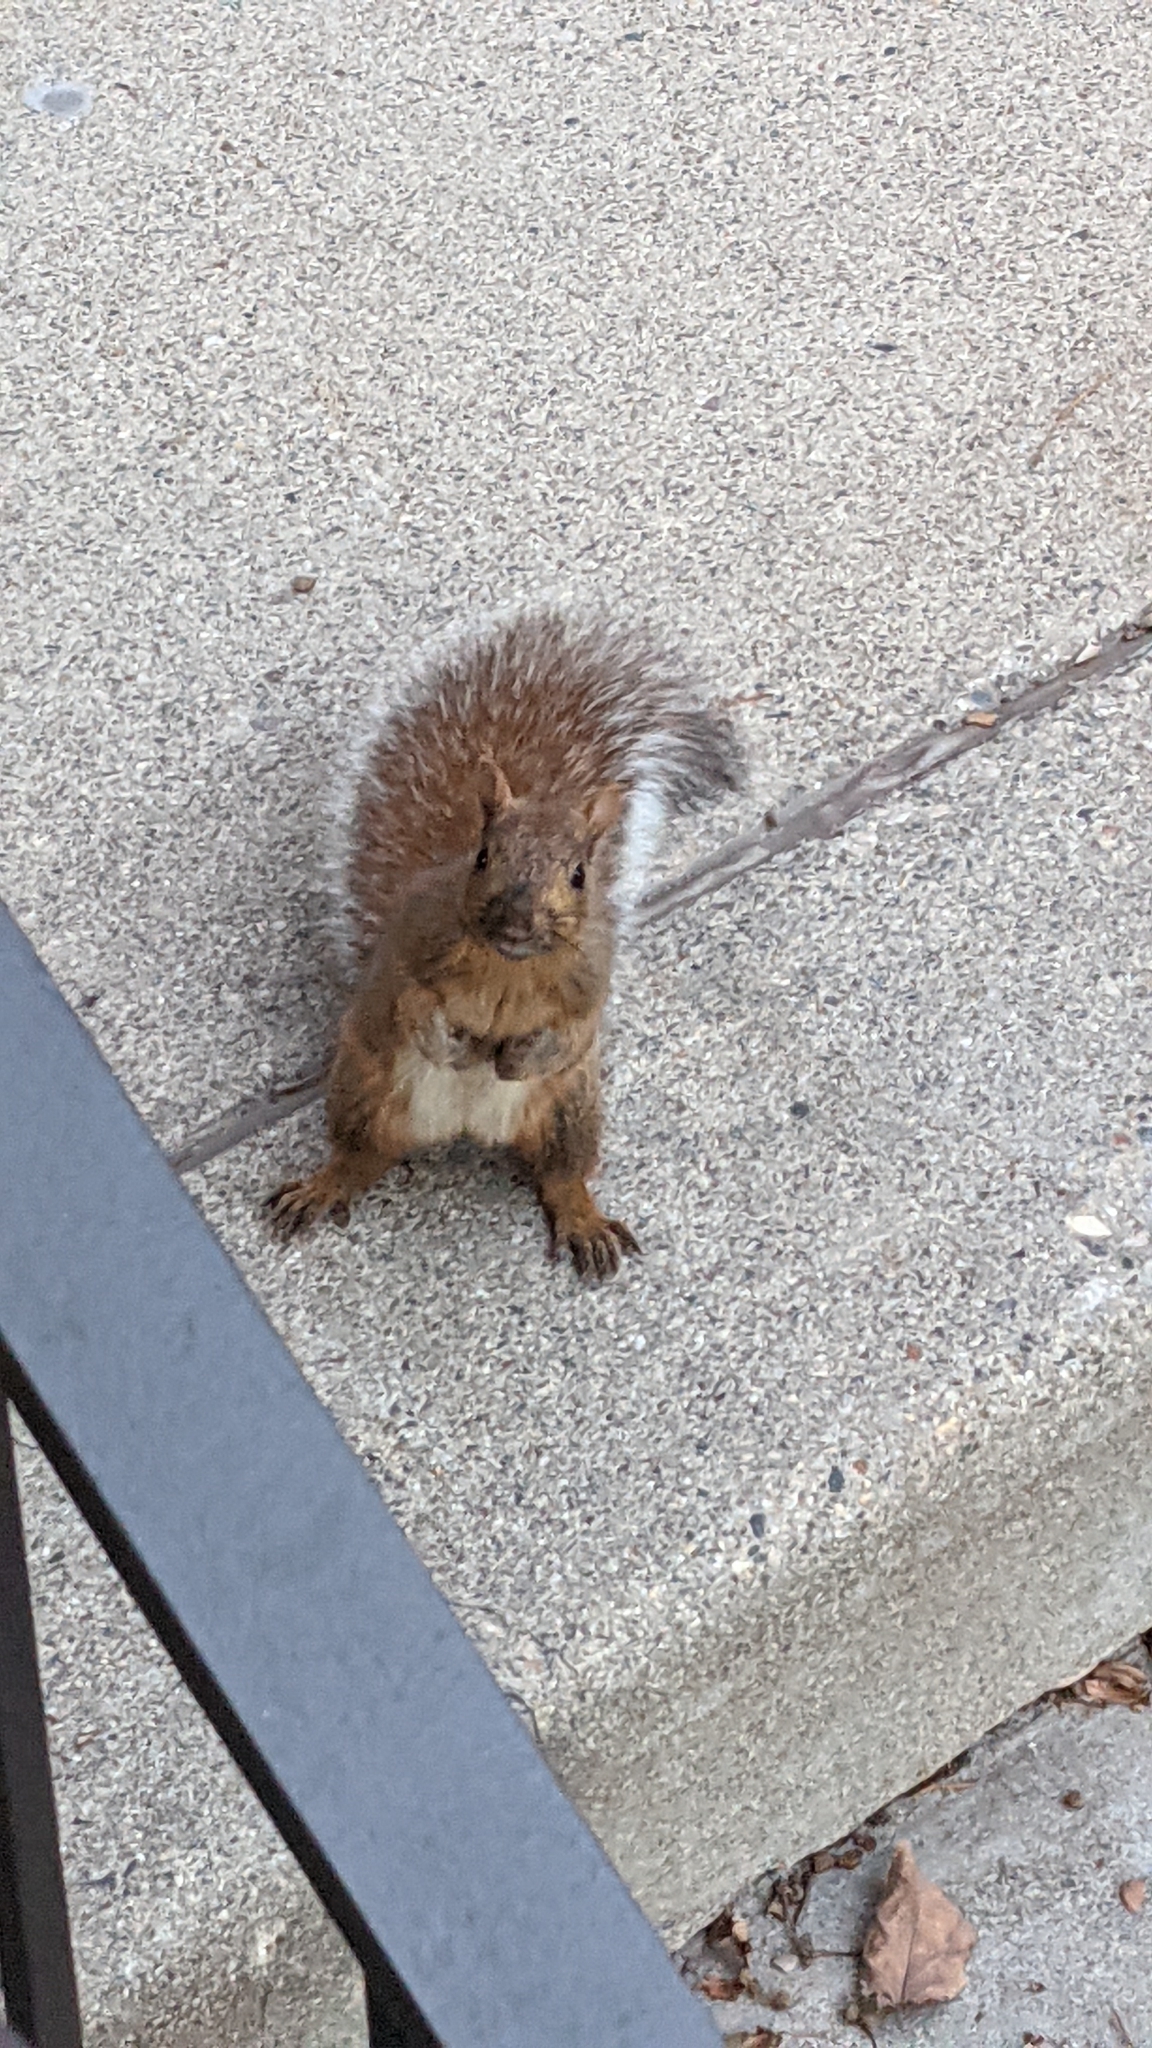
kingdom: Animalia
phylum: Chordata
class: Mammalia
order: Rodentia
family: Sciuridae
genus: Sciurus
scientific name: Sciurus carolinensis
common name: Eastern gray squirrel
